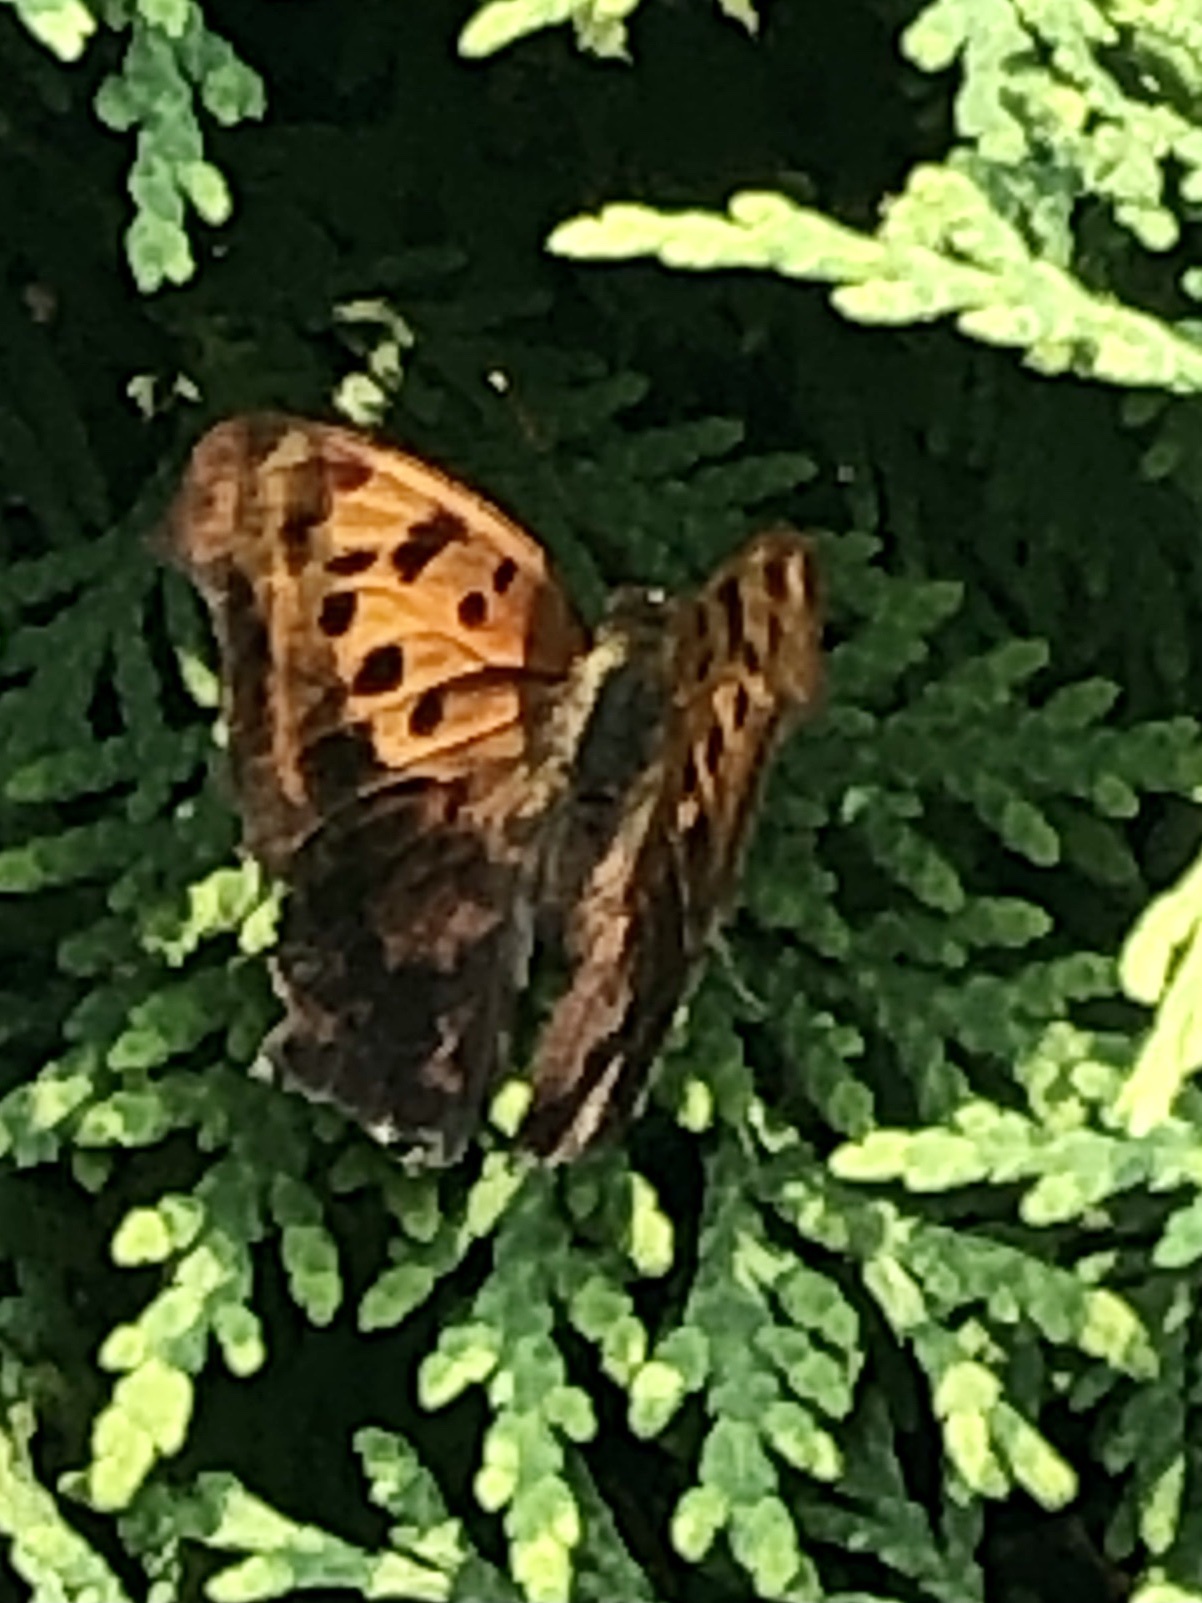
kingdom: Animalia
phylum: Arthropoda
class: Insecta
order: Lepidoptera
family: Nymphalidae
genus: Polygonia
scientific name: Polygonia interrogationis
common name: Question mark
